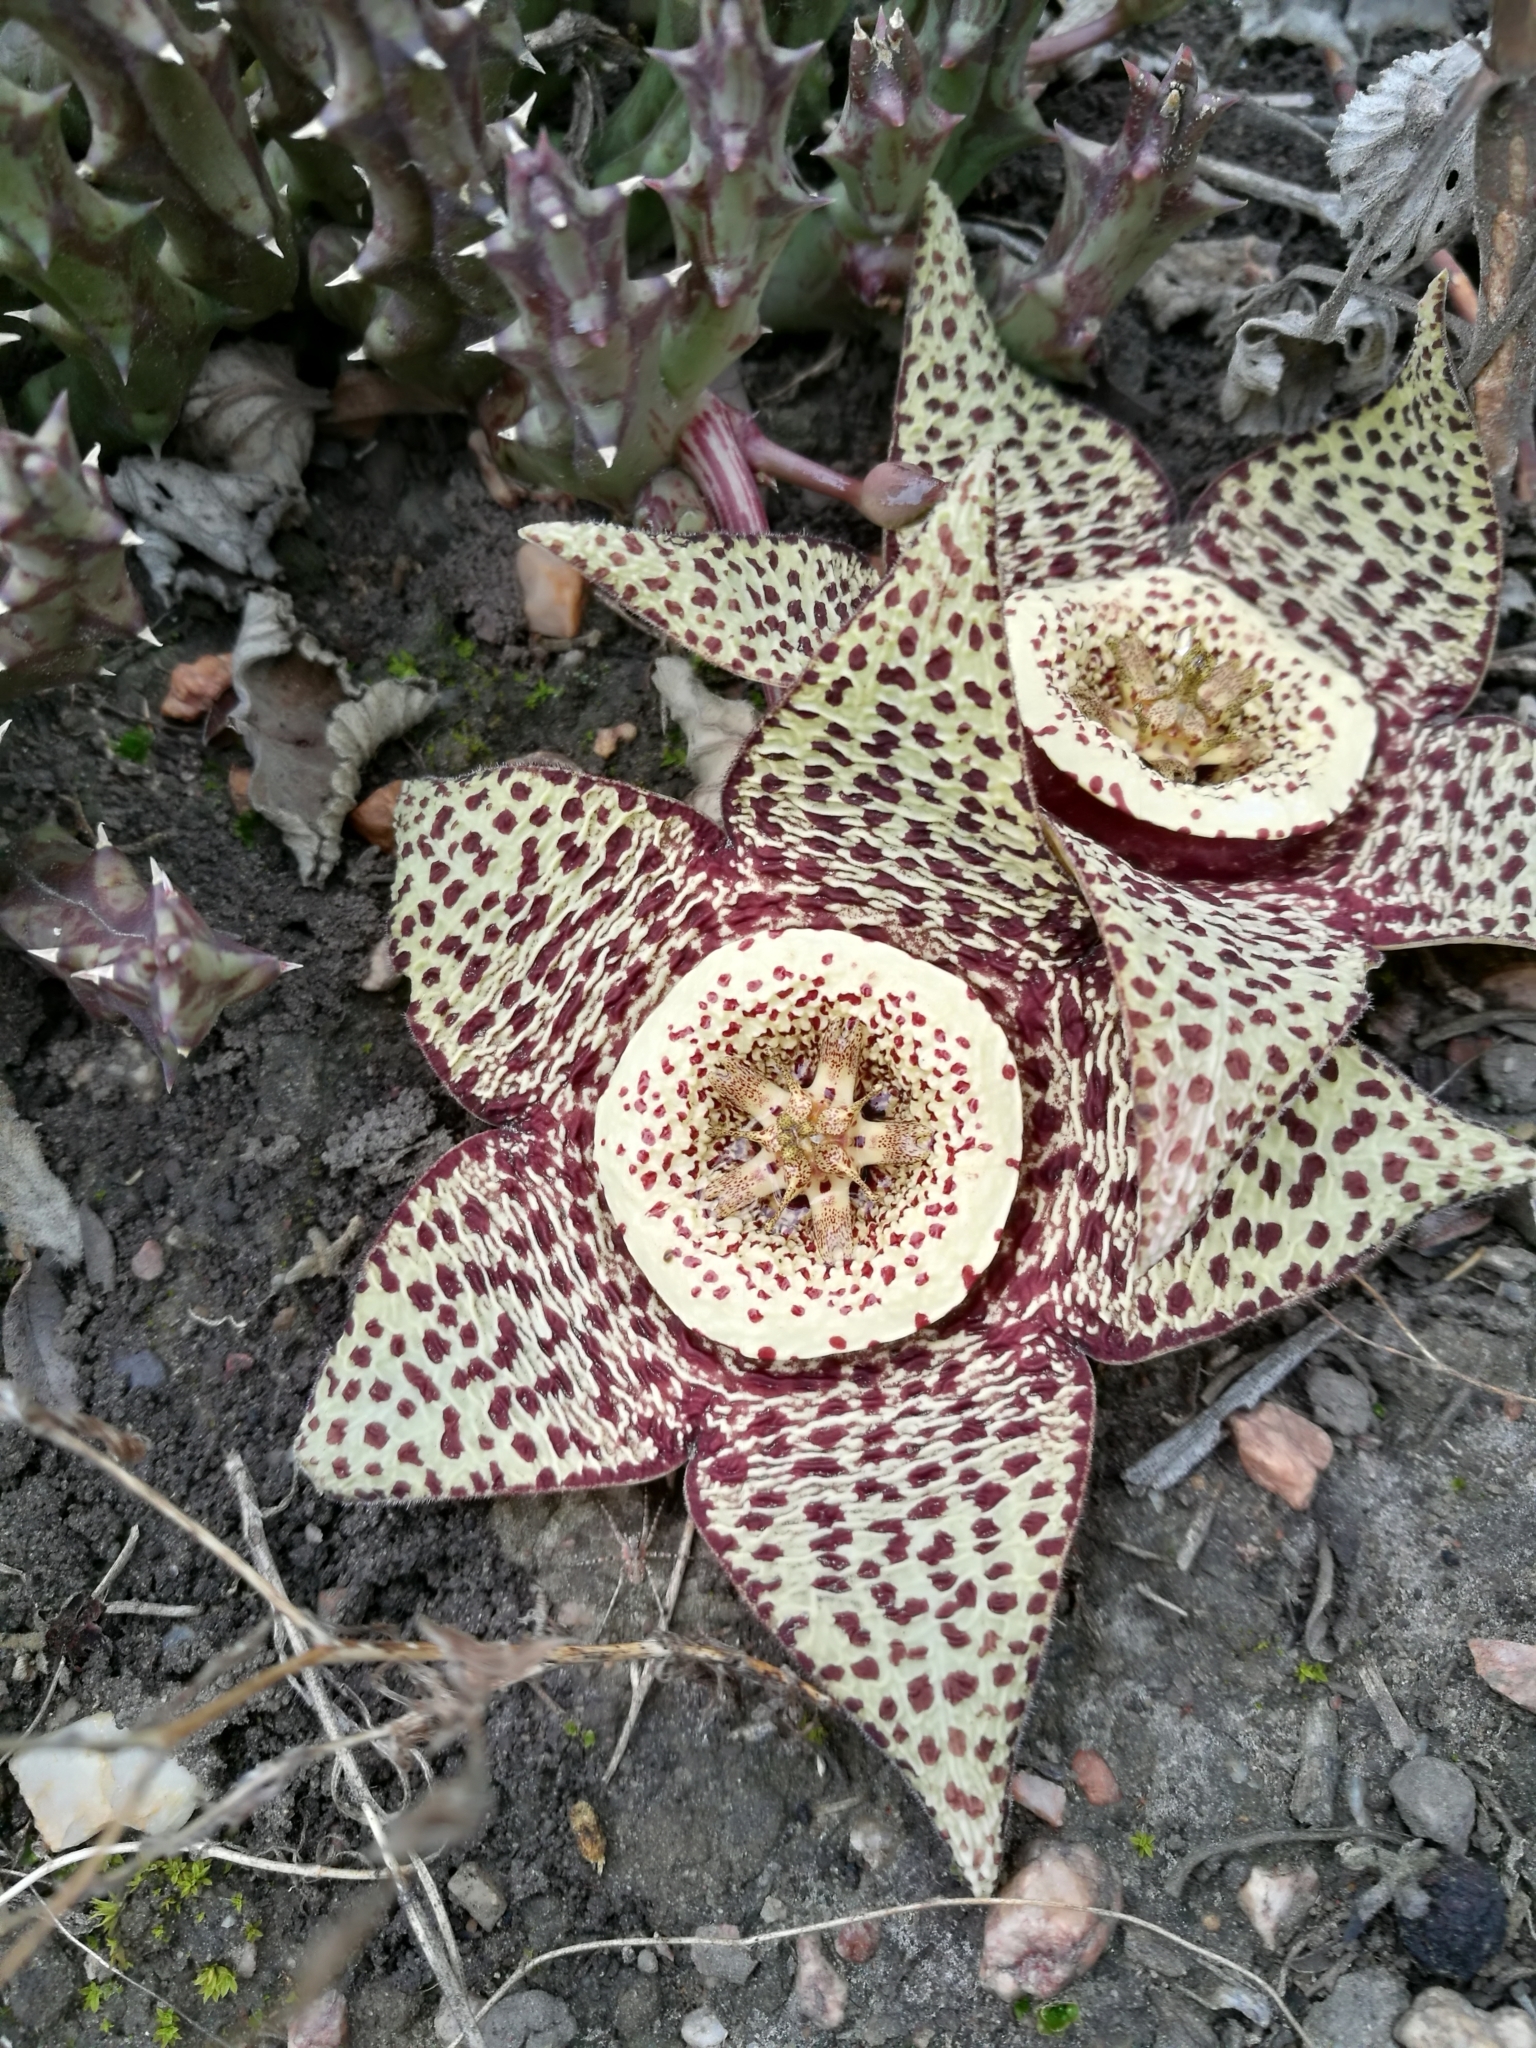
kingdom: Plantae
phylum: Tracheophyta
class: Magnoliopsida
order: Gentianales
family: Apocynaceae
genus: Ceropegia
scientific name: Ceropegia mixta
